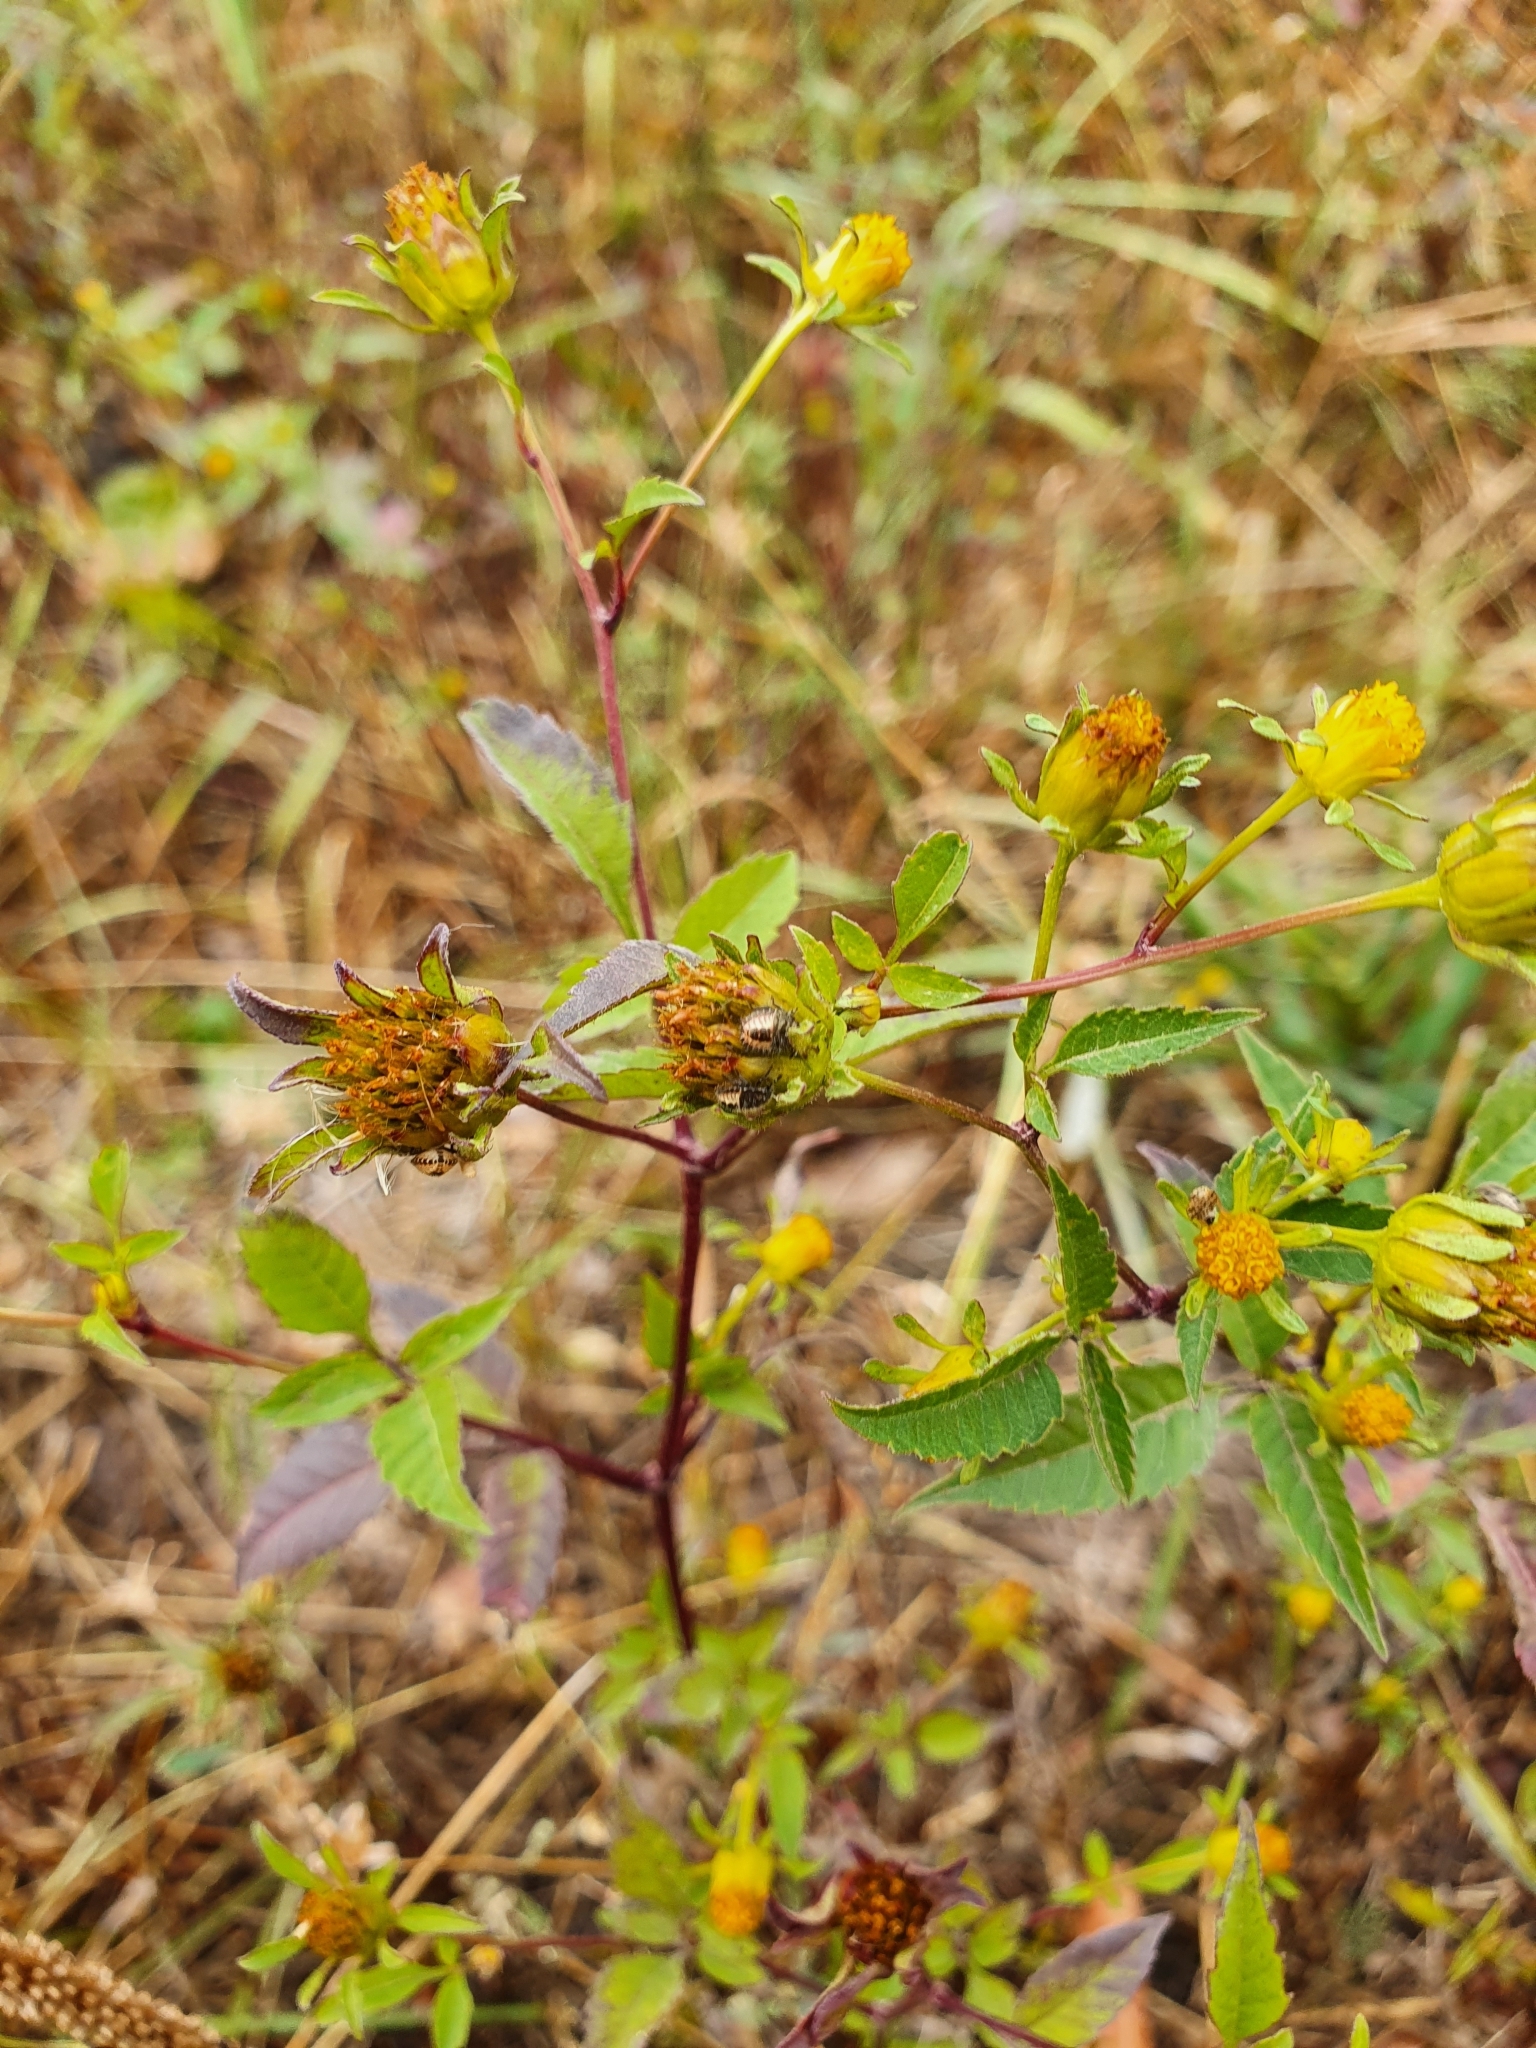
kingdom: Plantae
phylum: Tracheophyta
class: Magnoliopsida
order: Asterales
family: Asteraceae
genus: Bidens
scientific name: Bidens frondosa
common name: Beggarticks
